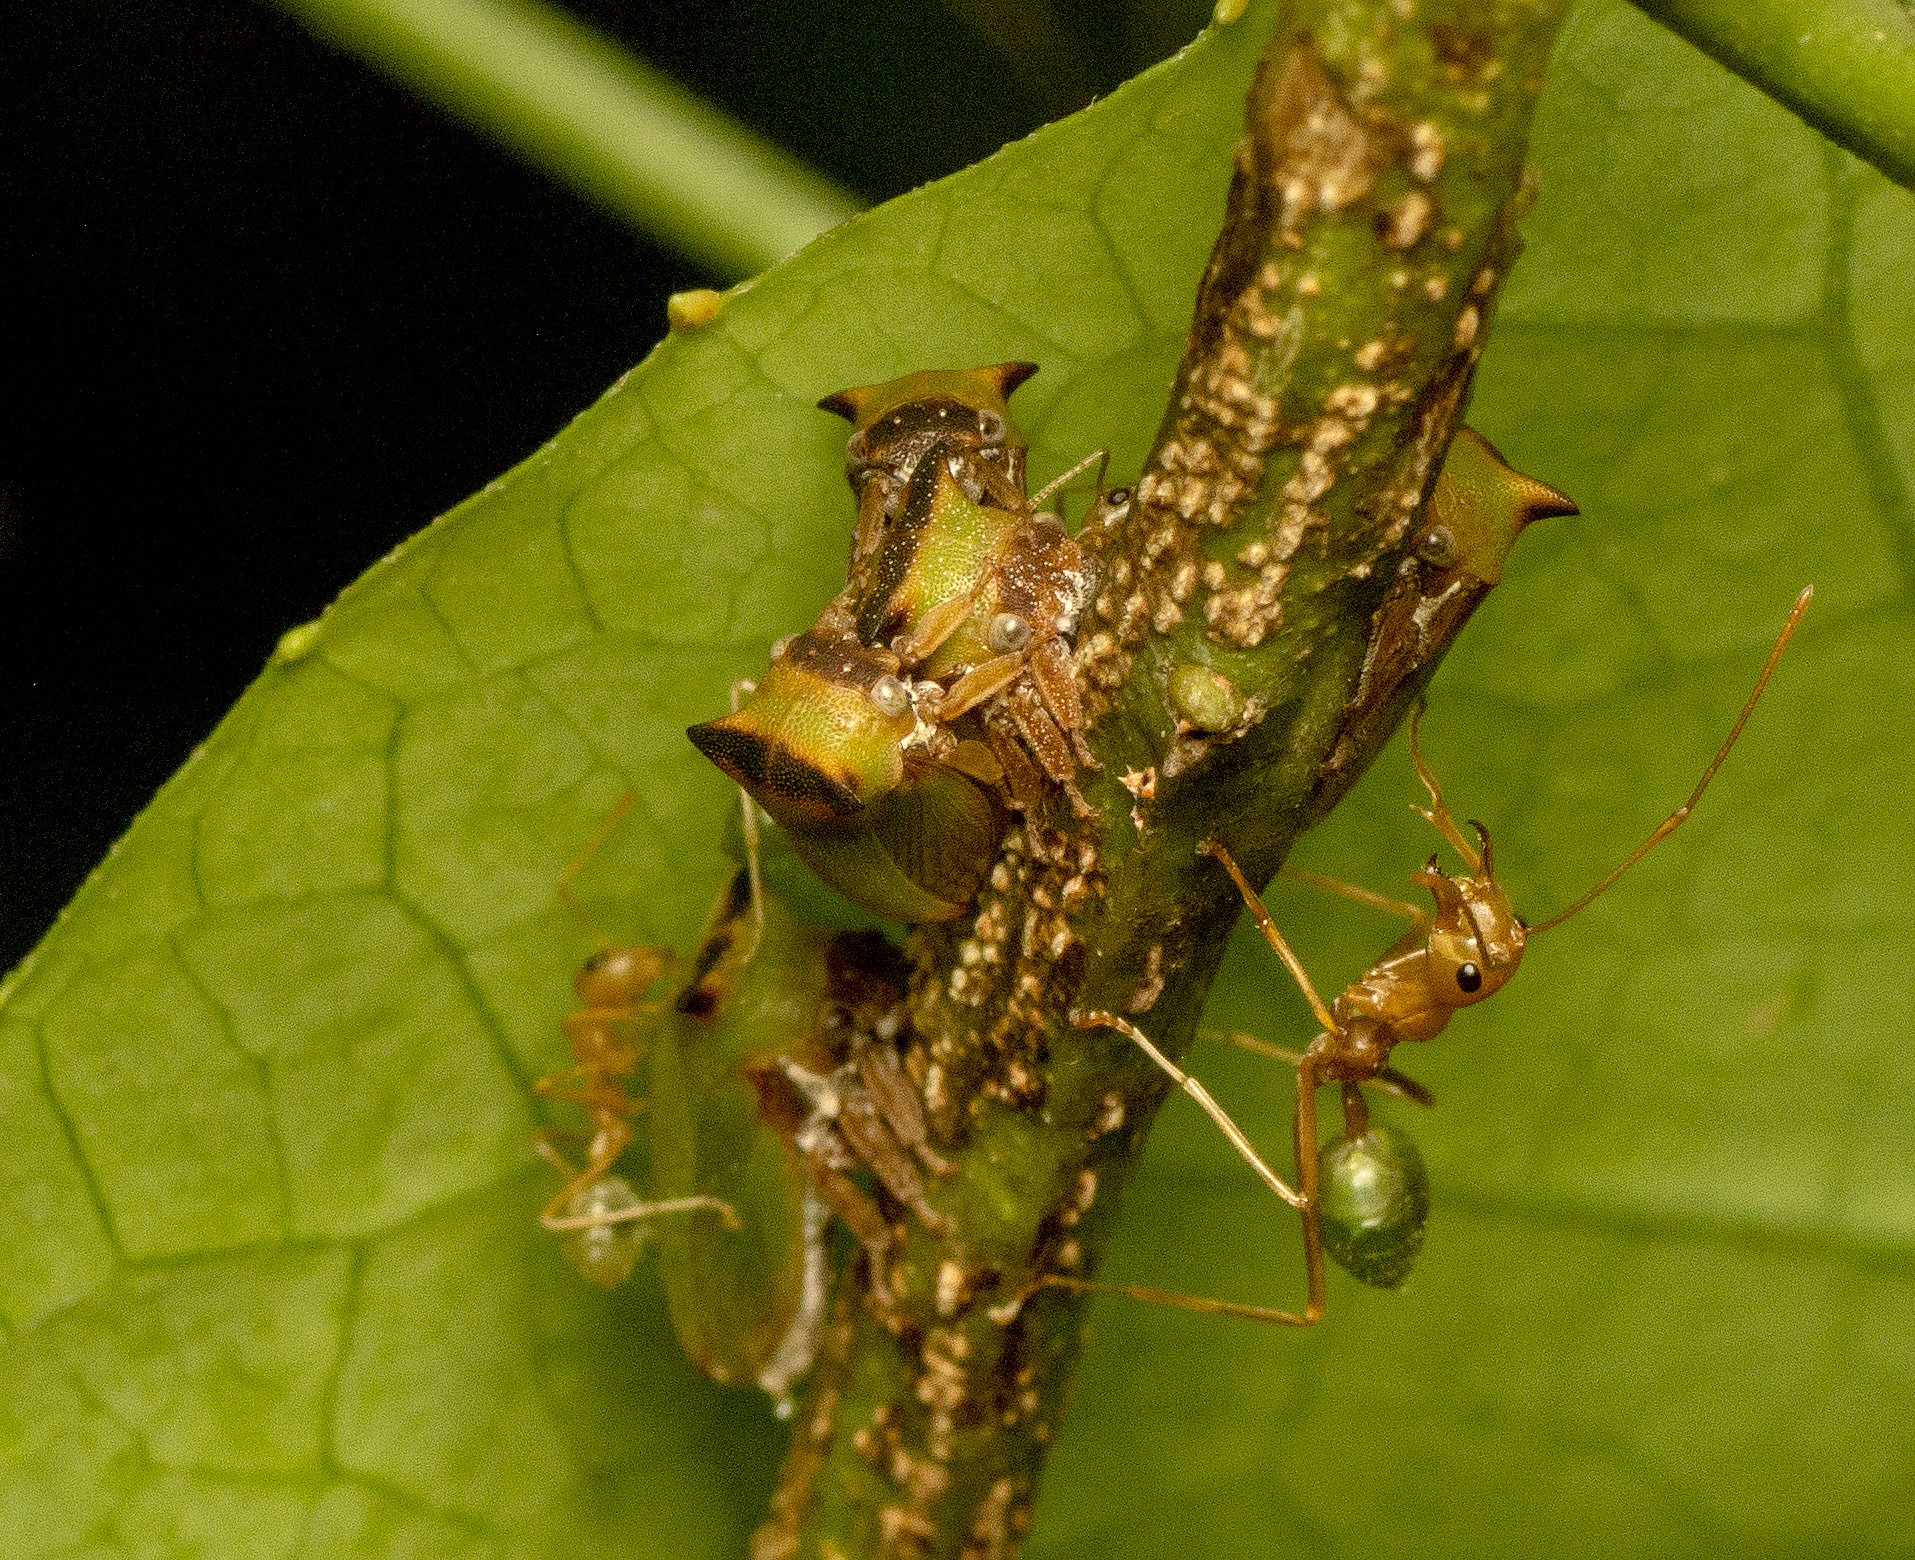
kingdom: Animalia
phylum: Arthropoda
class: Insecta
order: Hemiptera
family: Membracidae
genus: Sextius
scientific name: Sextius virescens
